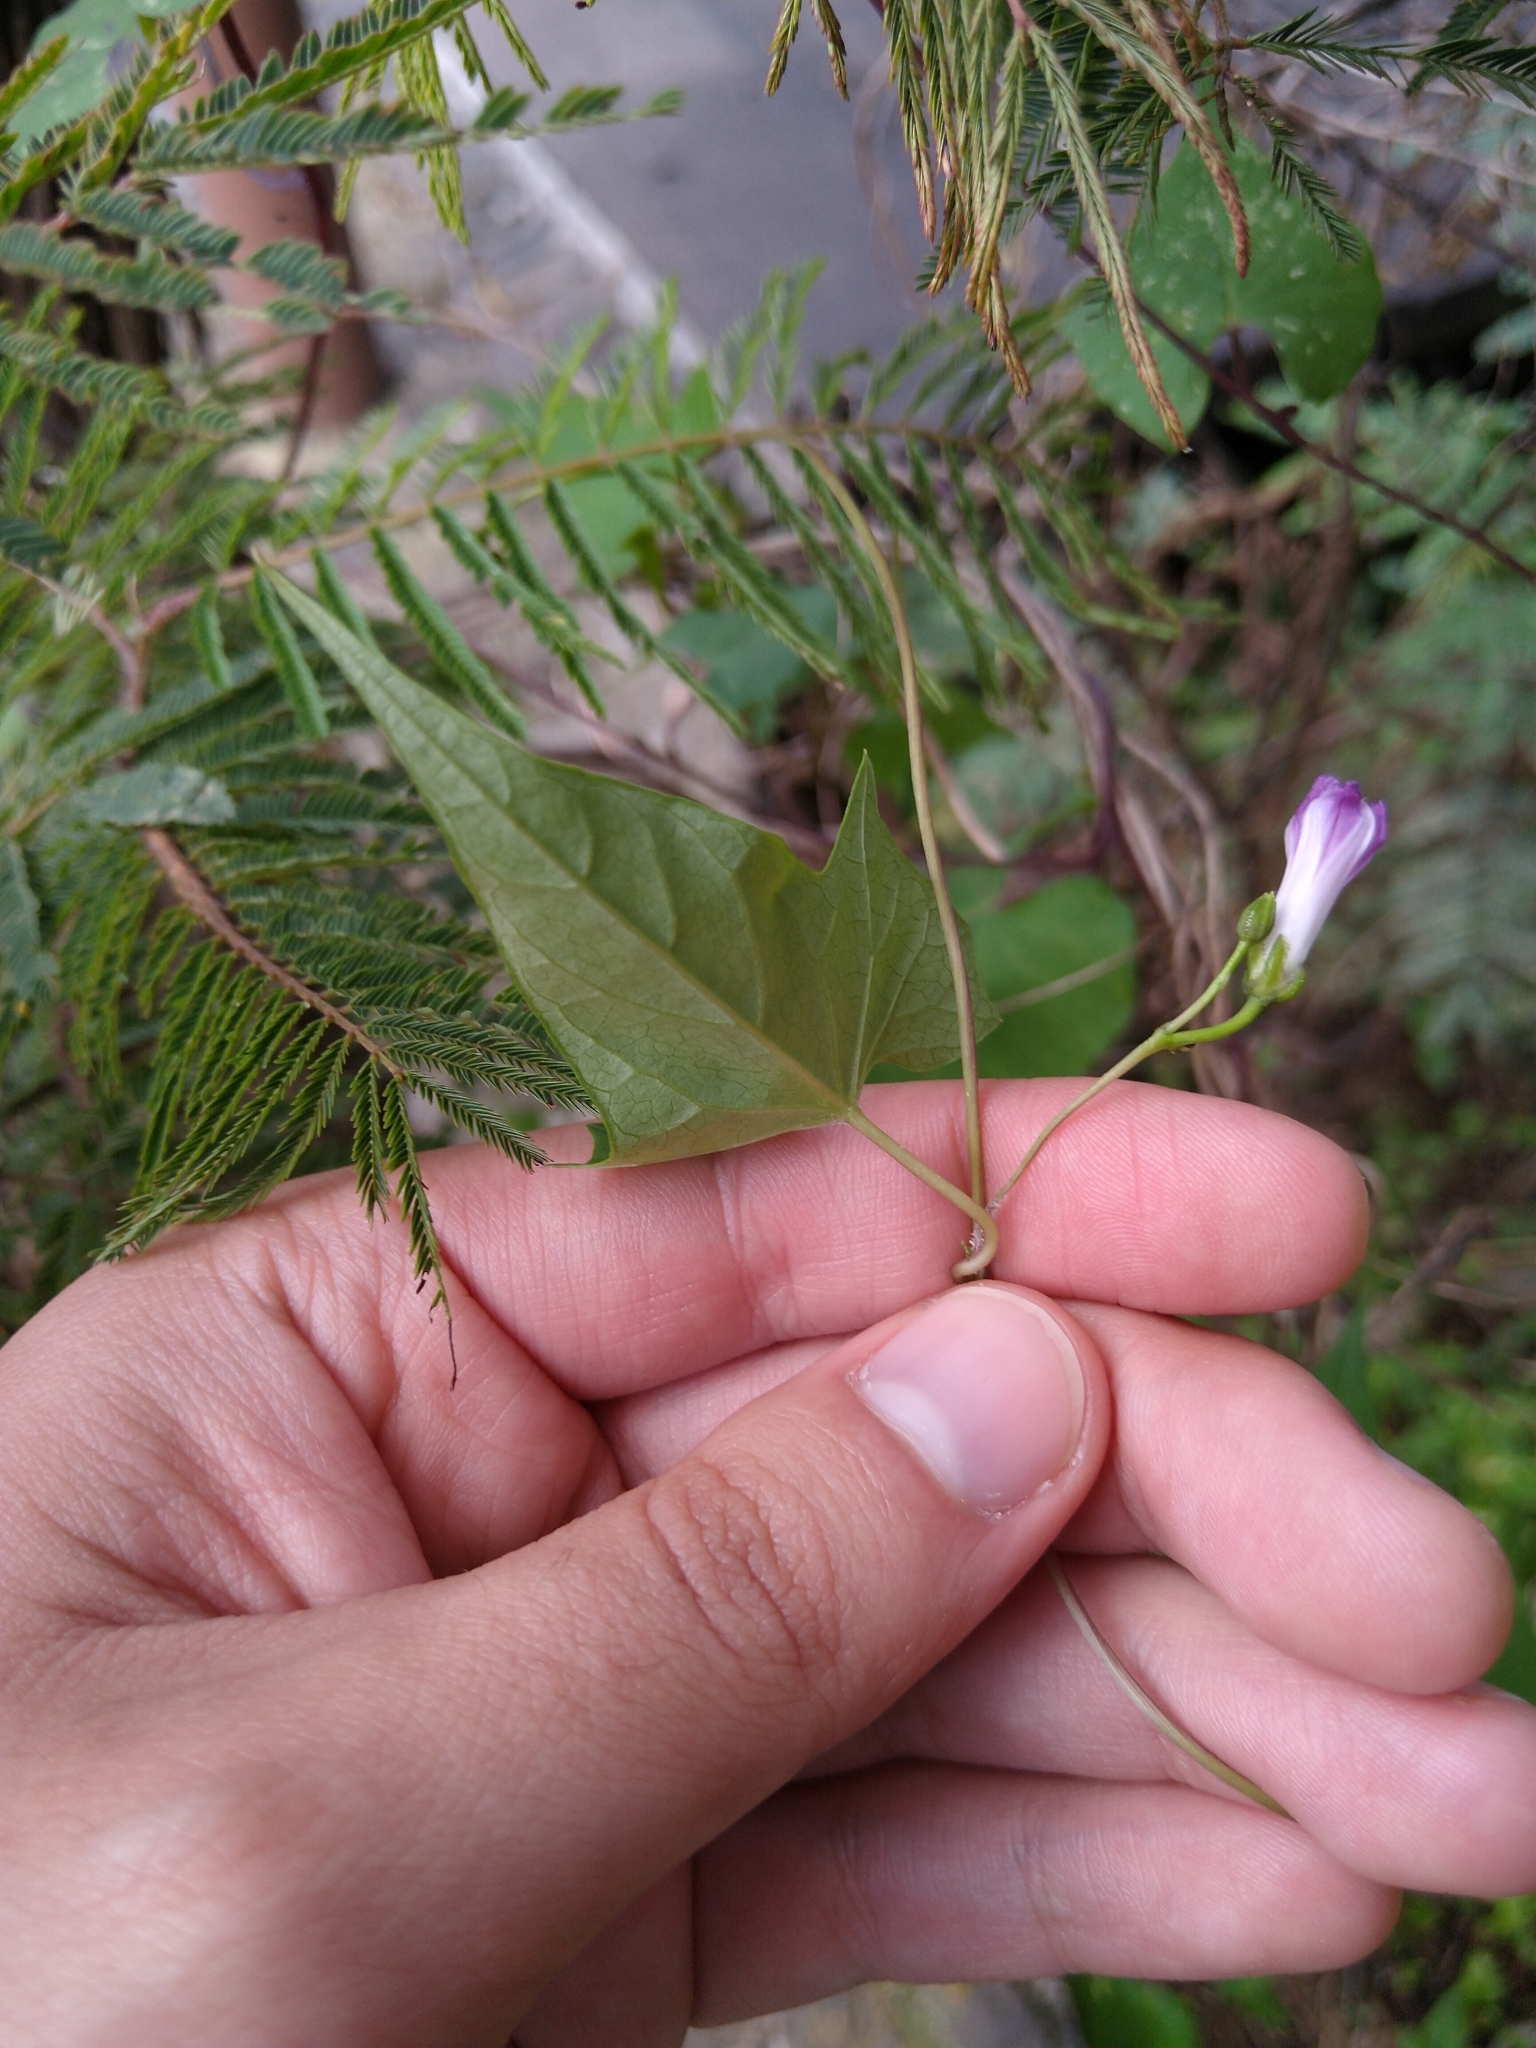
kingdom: Plantae
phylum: Tracheophyta
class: Magnoliopsida
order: Solanales
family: Convolvulaceae
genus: Ipomoea
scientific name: Ipomoea dumetorum
